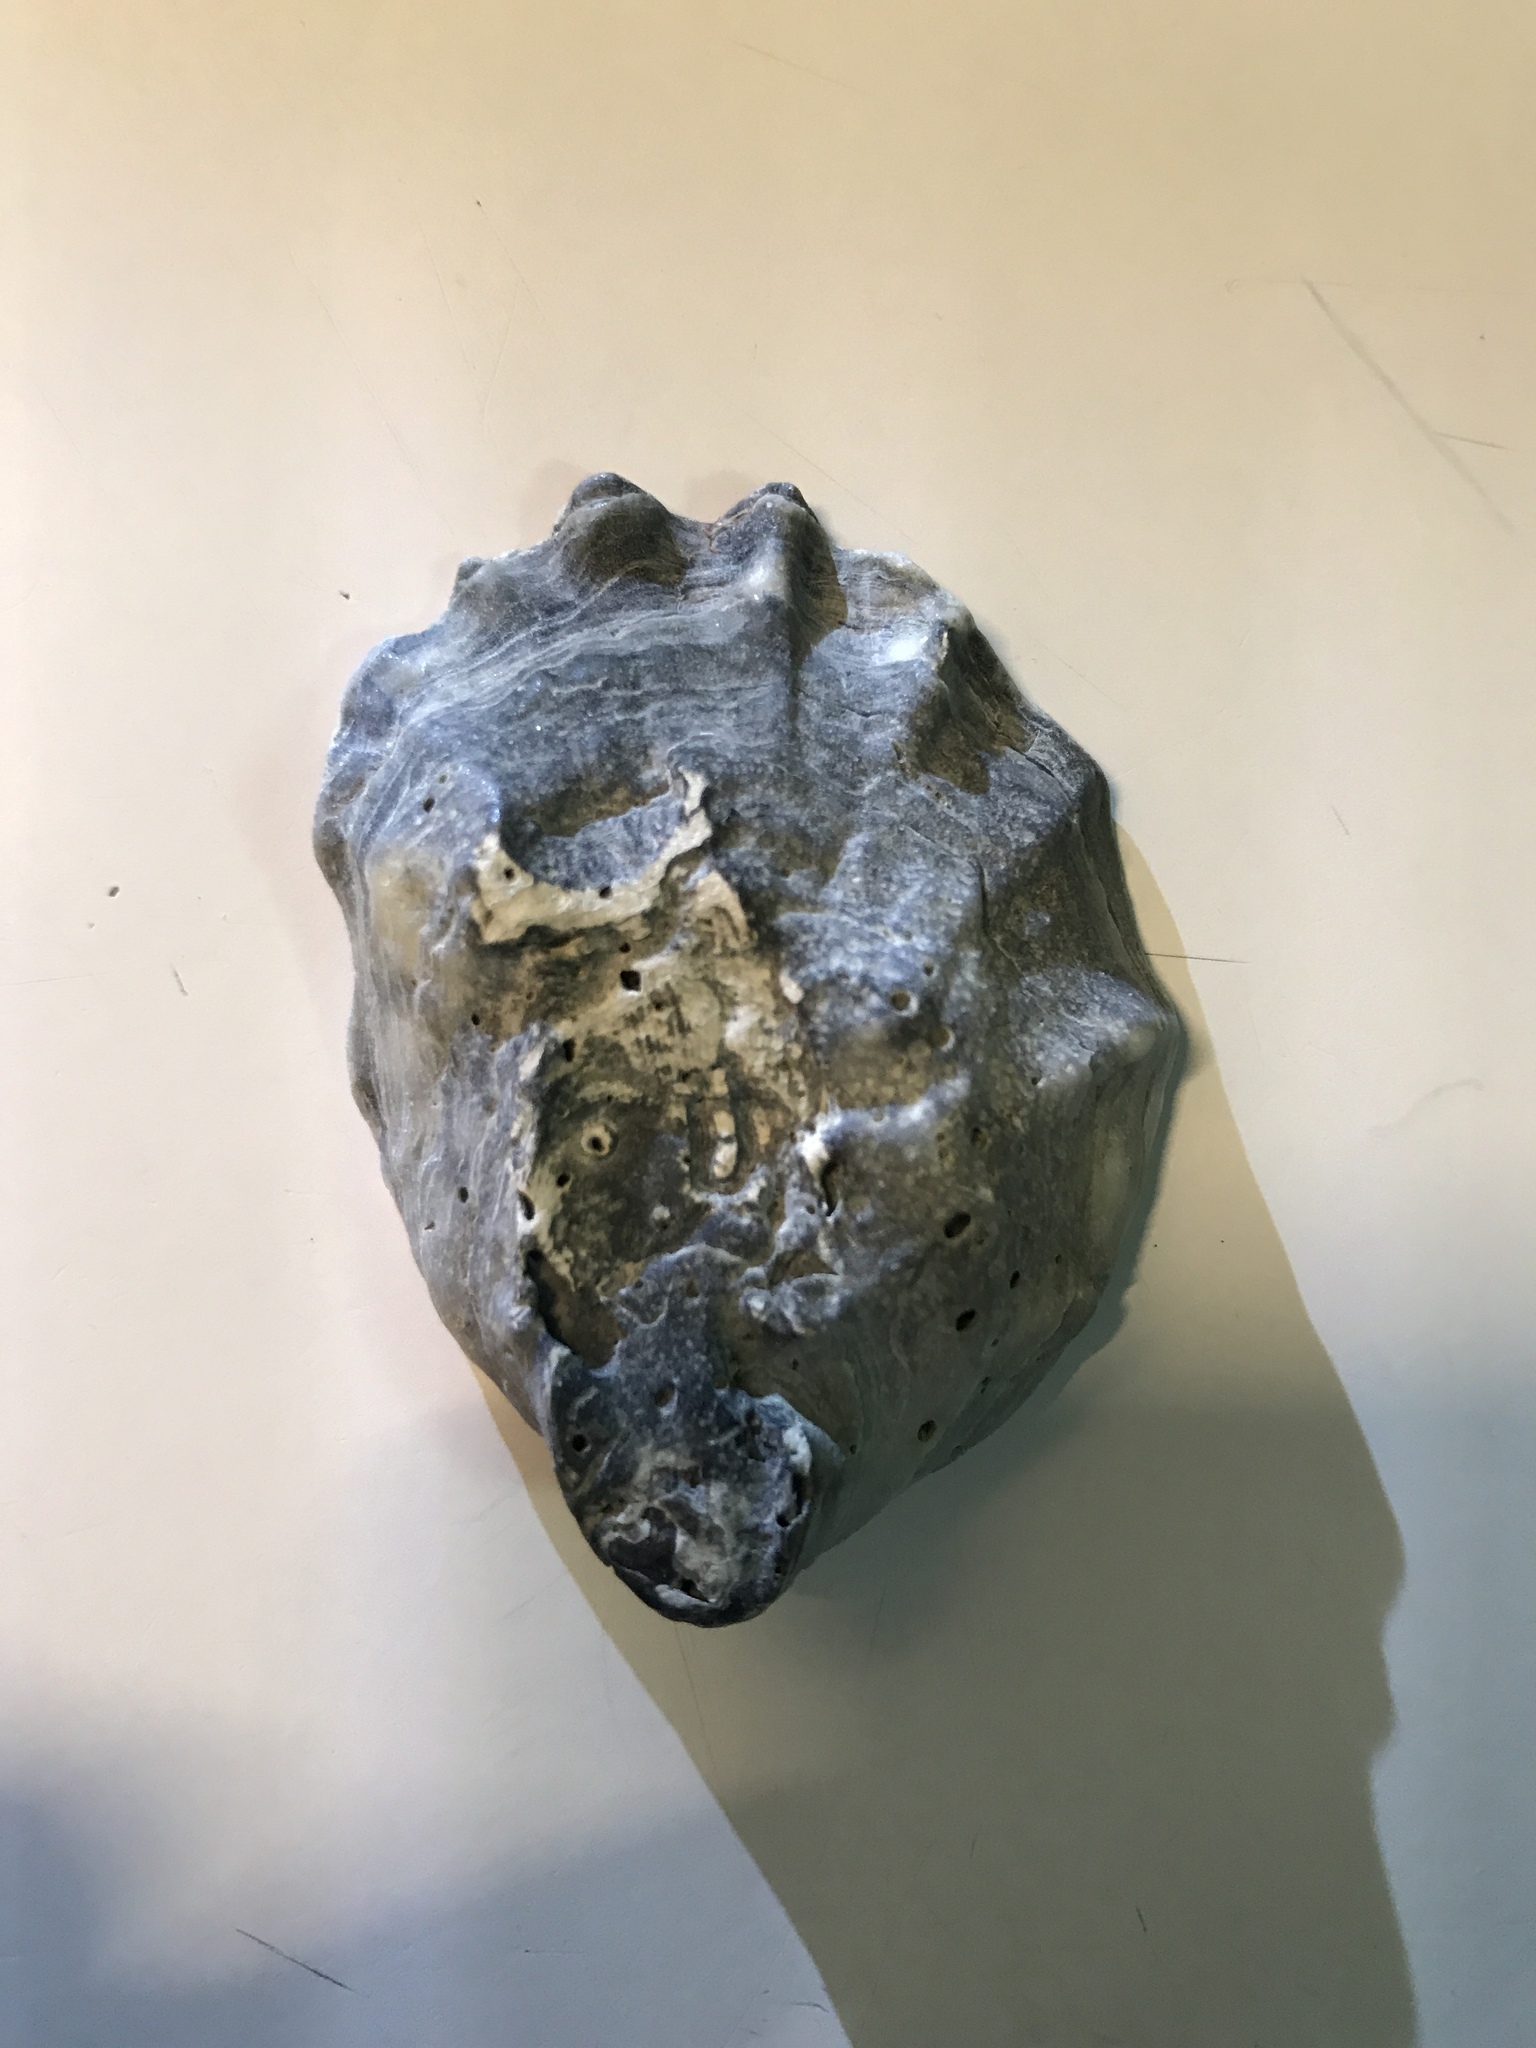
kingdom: Animalia
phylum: Mollusca
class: Bivalvia
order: Ostreida
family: Ostreidae
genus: Crassostrea
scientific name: Crassostrea virginica
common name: American oyster
